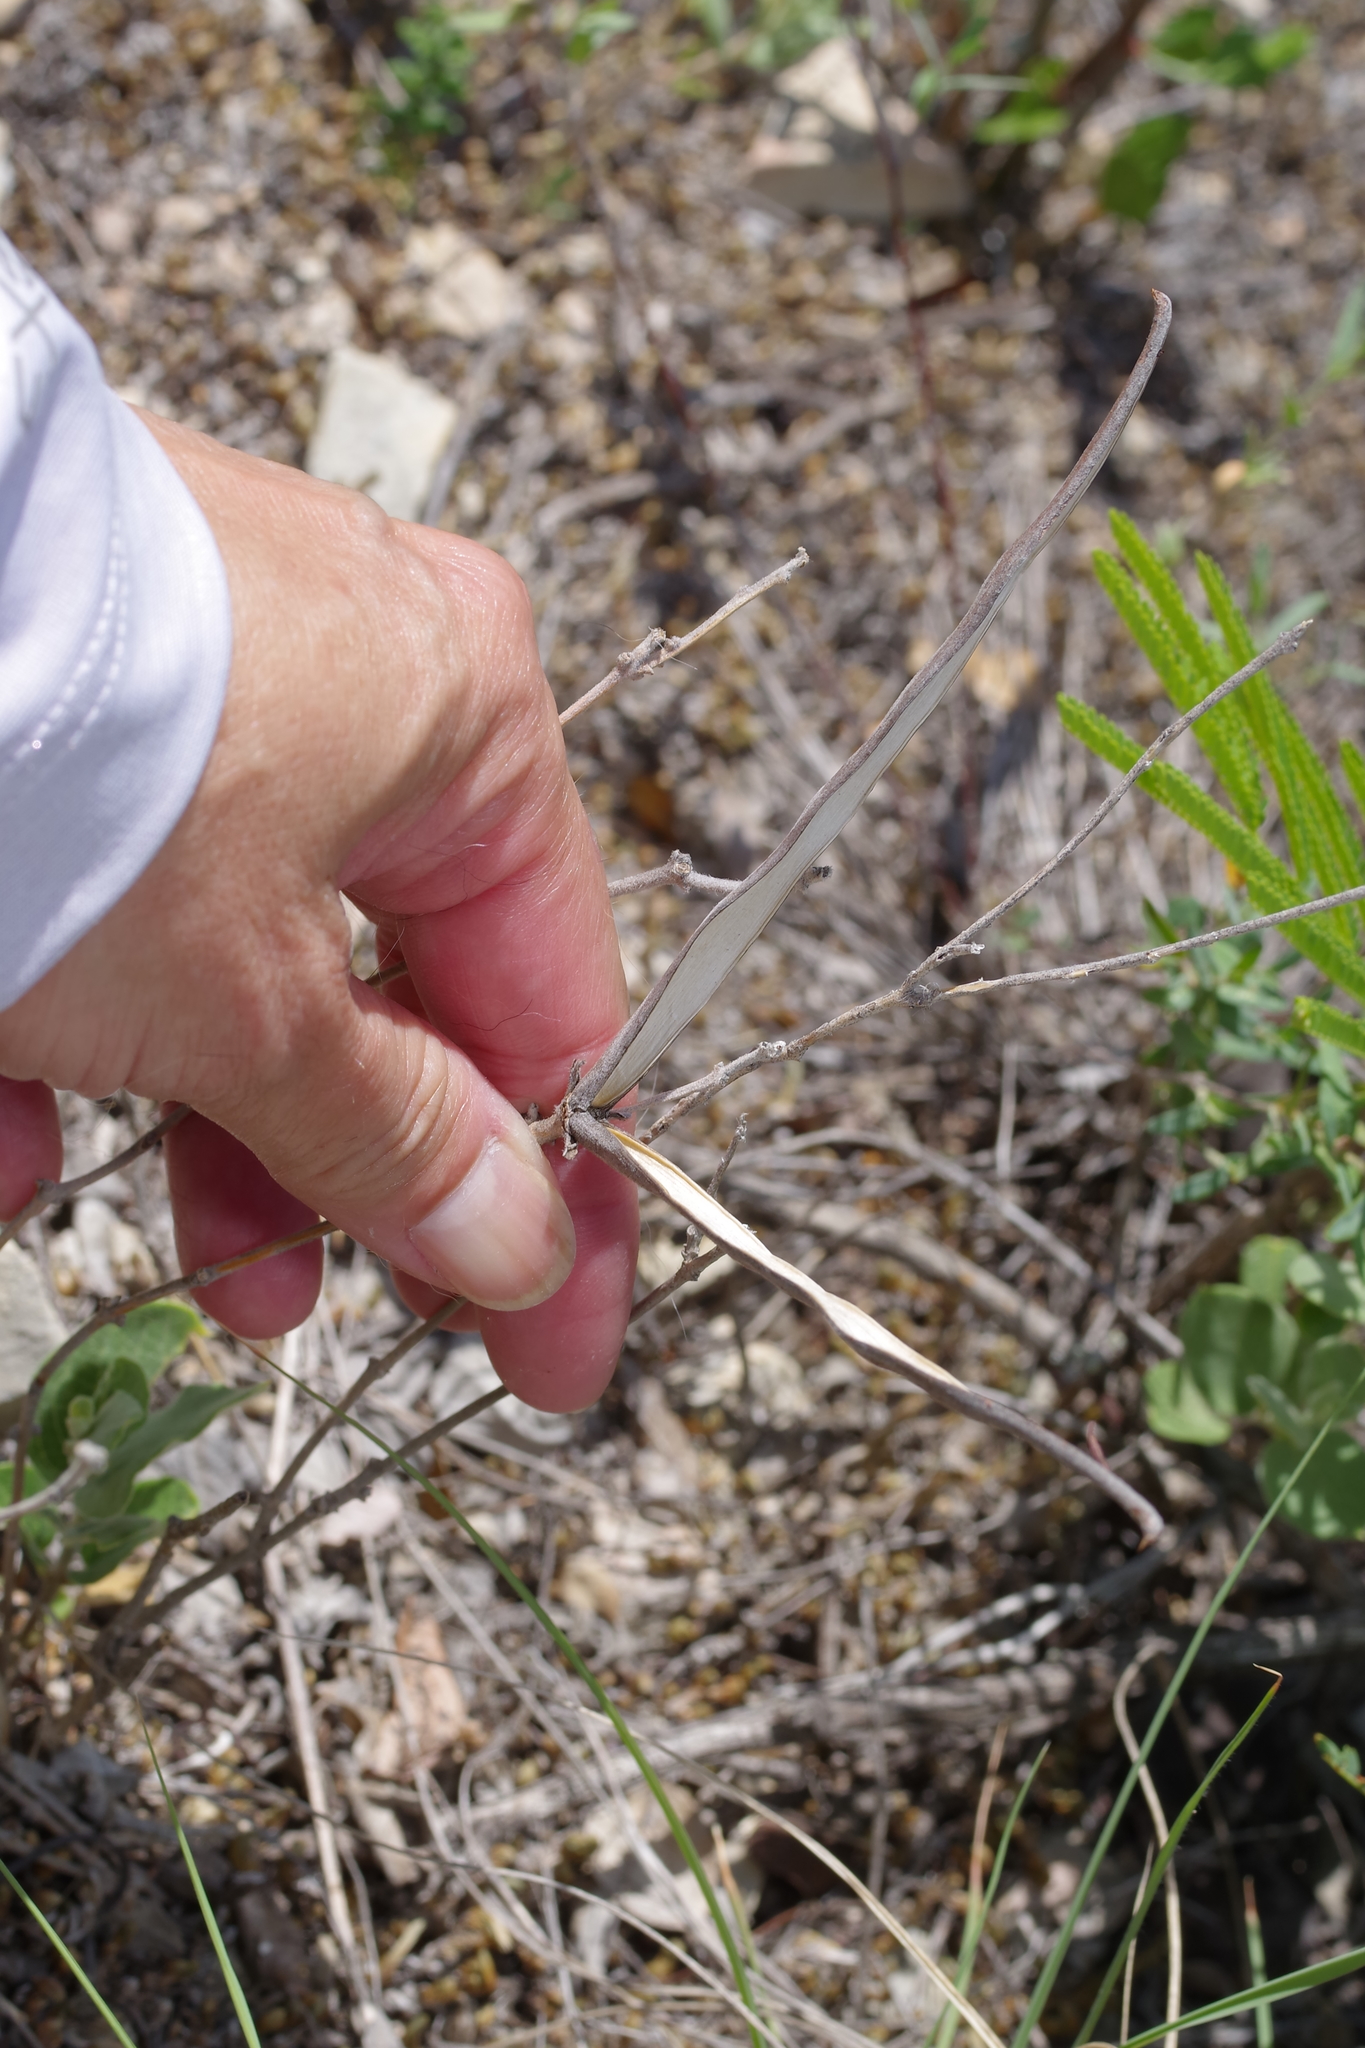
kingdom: Plantae
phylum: Tracheophyta
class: Magnoliopsida
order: Gentianales
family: Apocynaceae
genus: Mandevilla
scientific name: Mandevilla macrosiphon
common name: Plateau rocktrumpet
